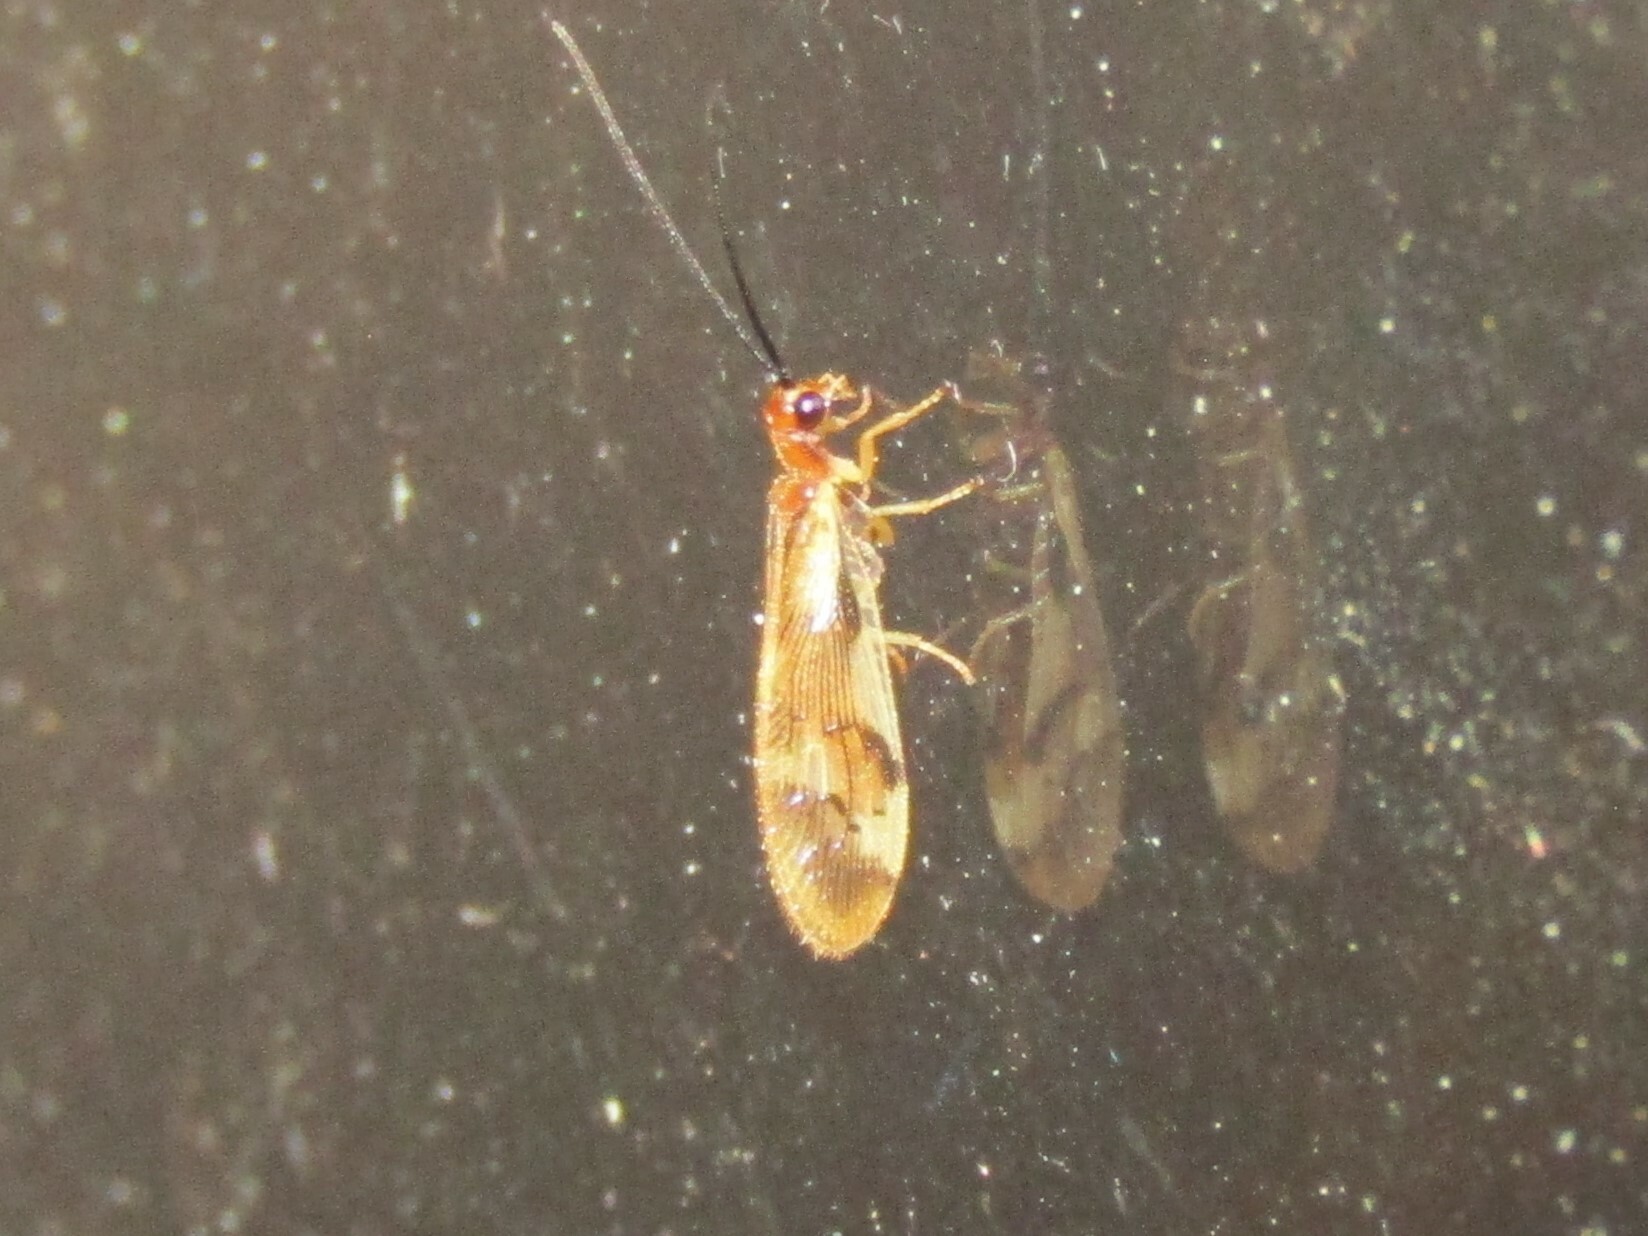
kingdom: Animalia
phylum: Arthropoda
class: Insecta
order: Neuroptera
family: Sisyridae
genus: Climacia
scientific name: Climacia areolaris
